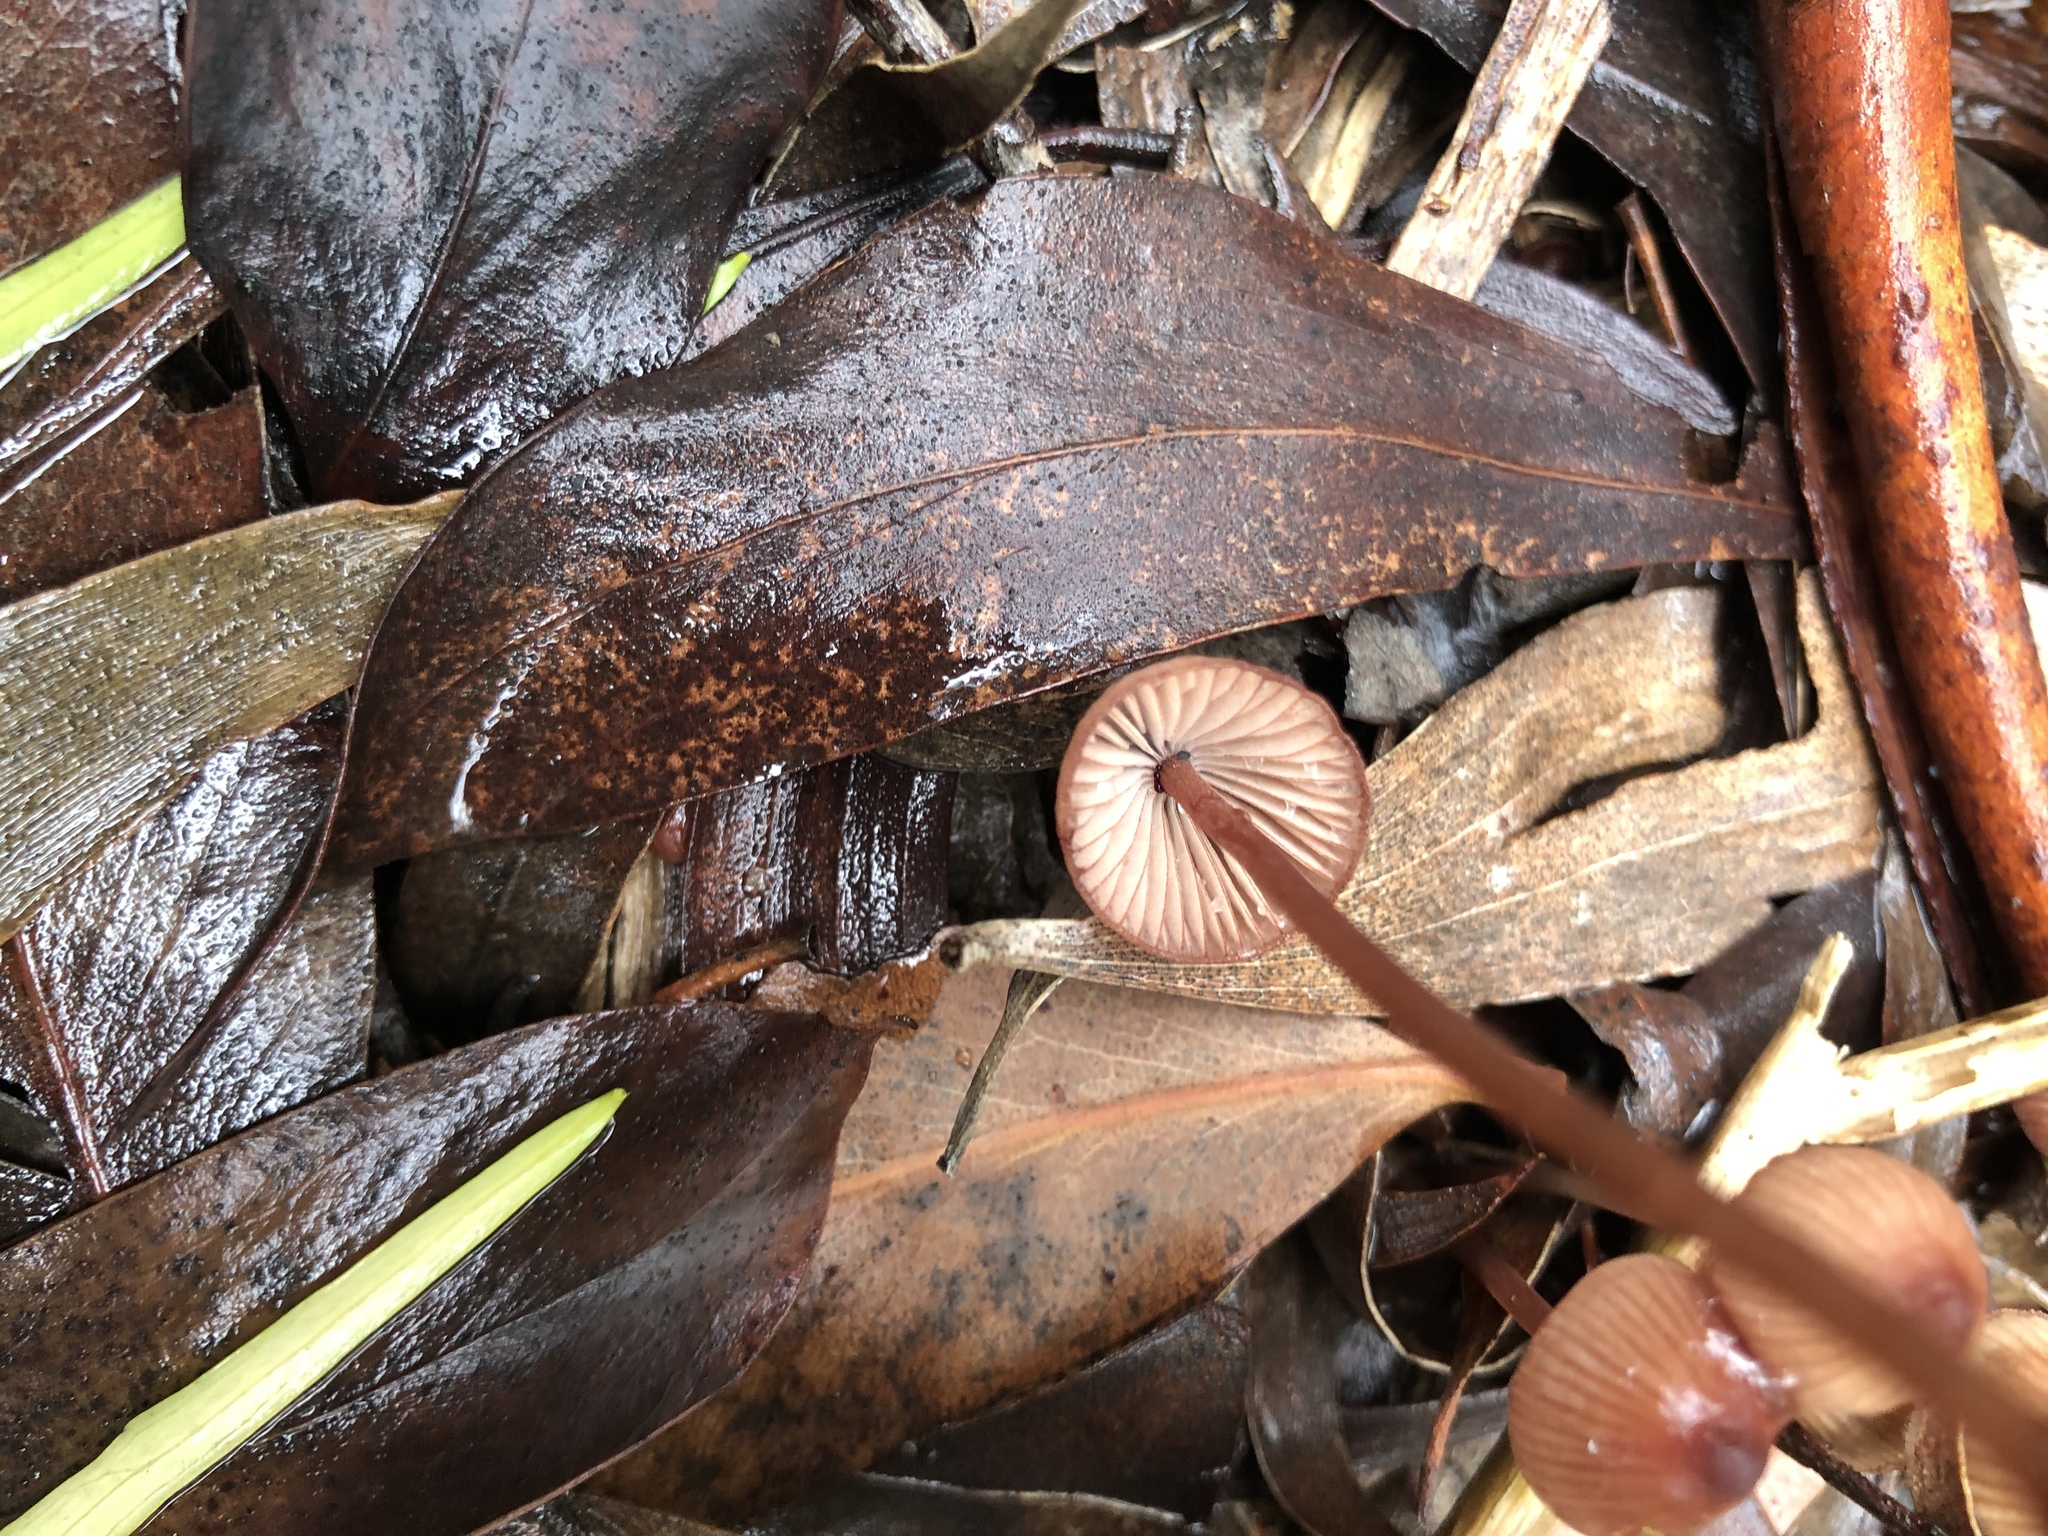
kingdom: Fungi
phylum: Basidiomycota
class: Agaricomycetes
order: Agaricales
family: Mycenaceae
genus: Mycena
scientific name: Mycena kuurkacea
